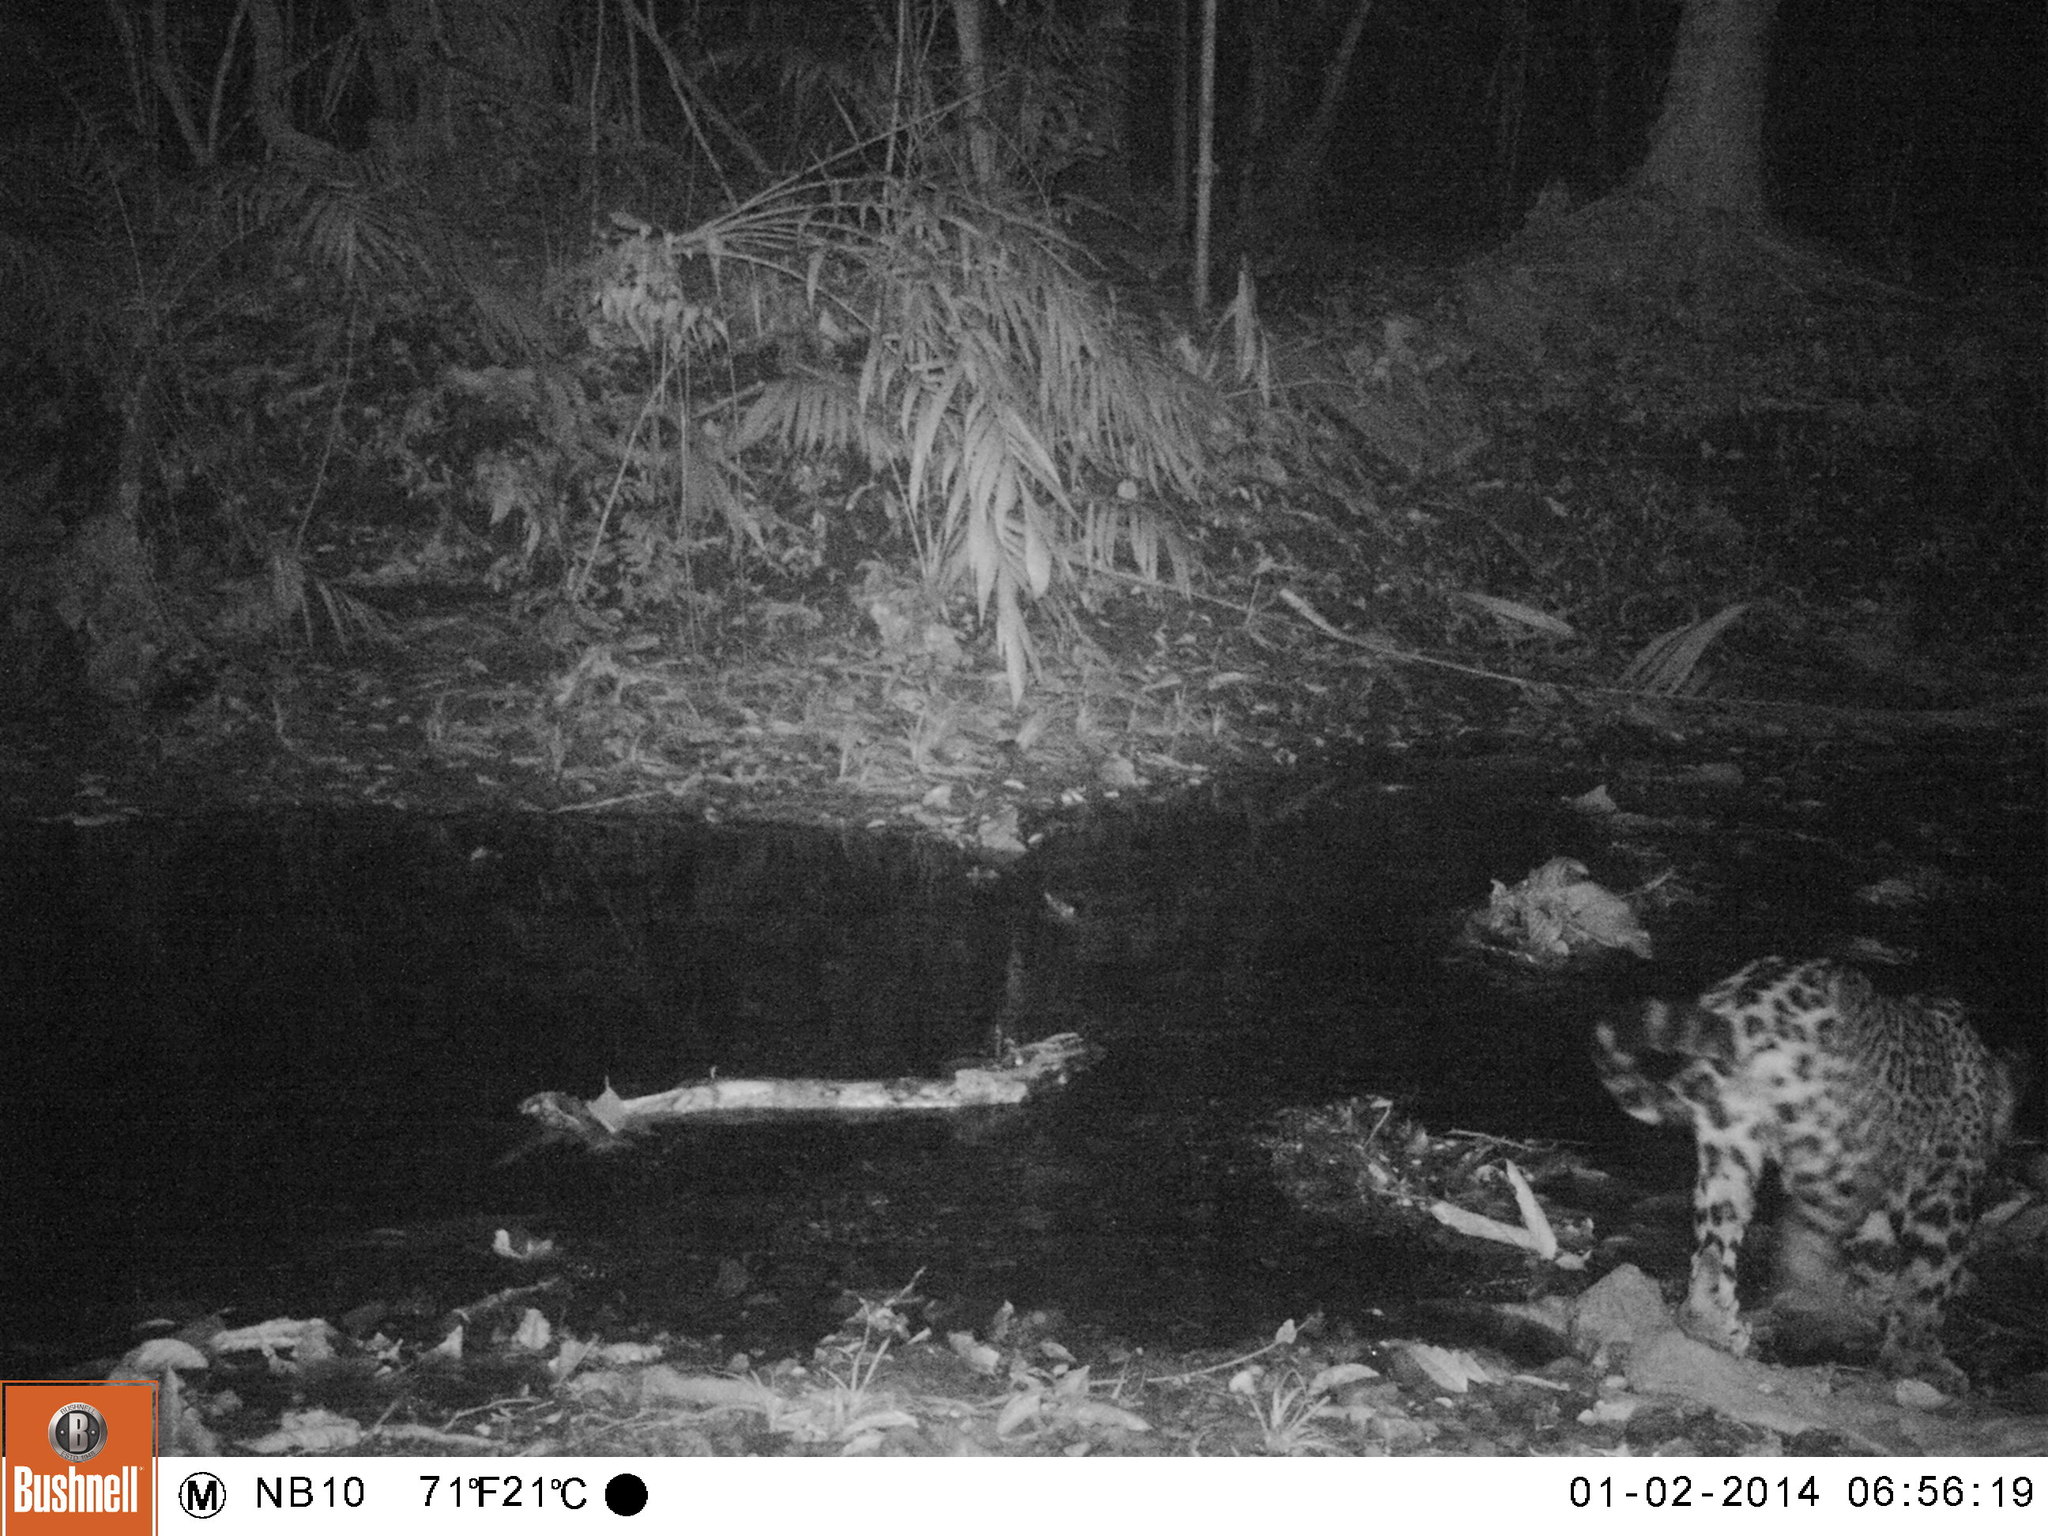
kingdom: Animalia
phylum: Chordata
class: Mammalia
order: Carnivora
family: Felidae
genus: Panthera
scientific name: Panthera onca
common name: Jaguar
